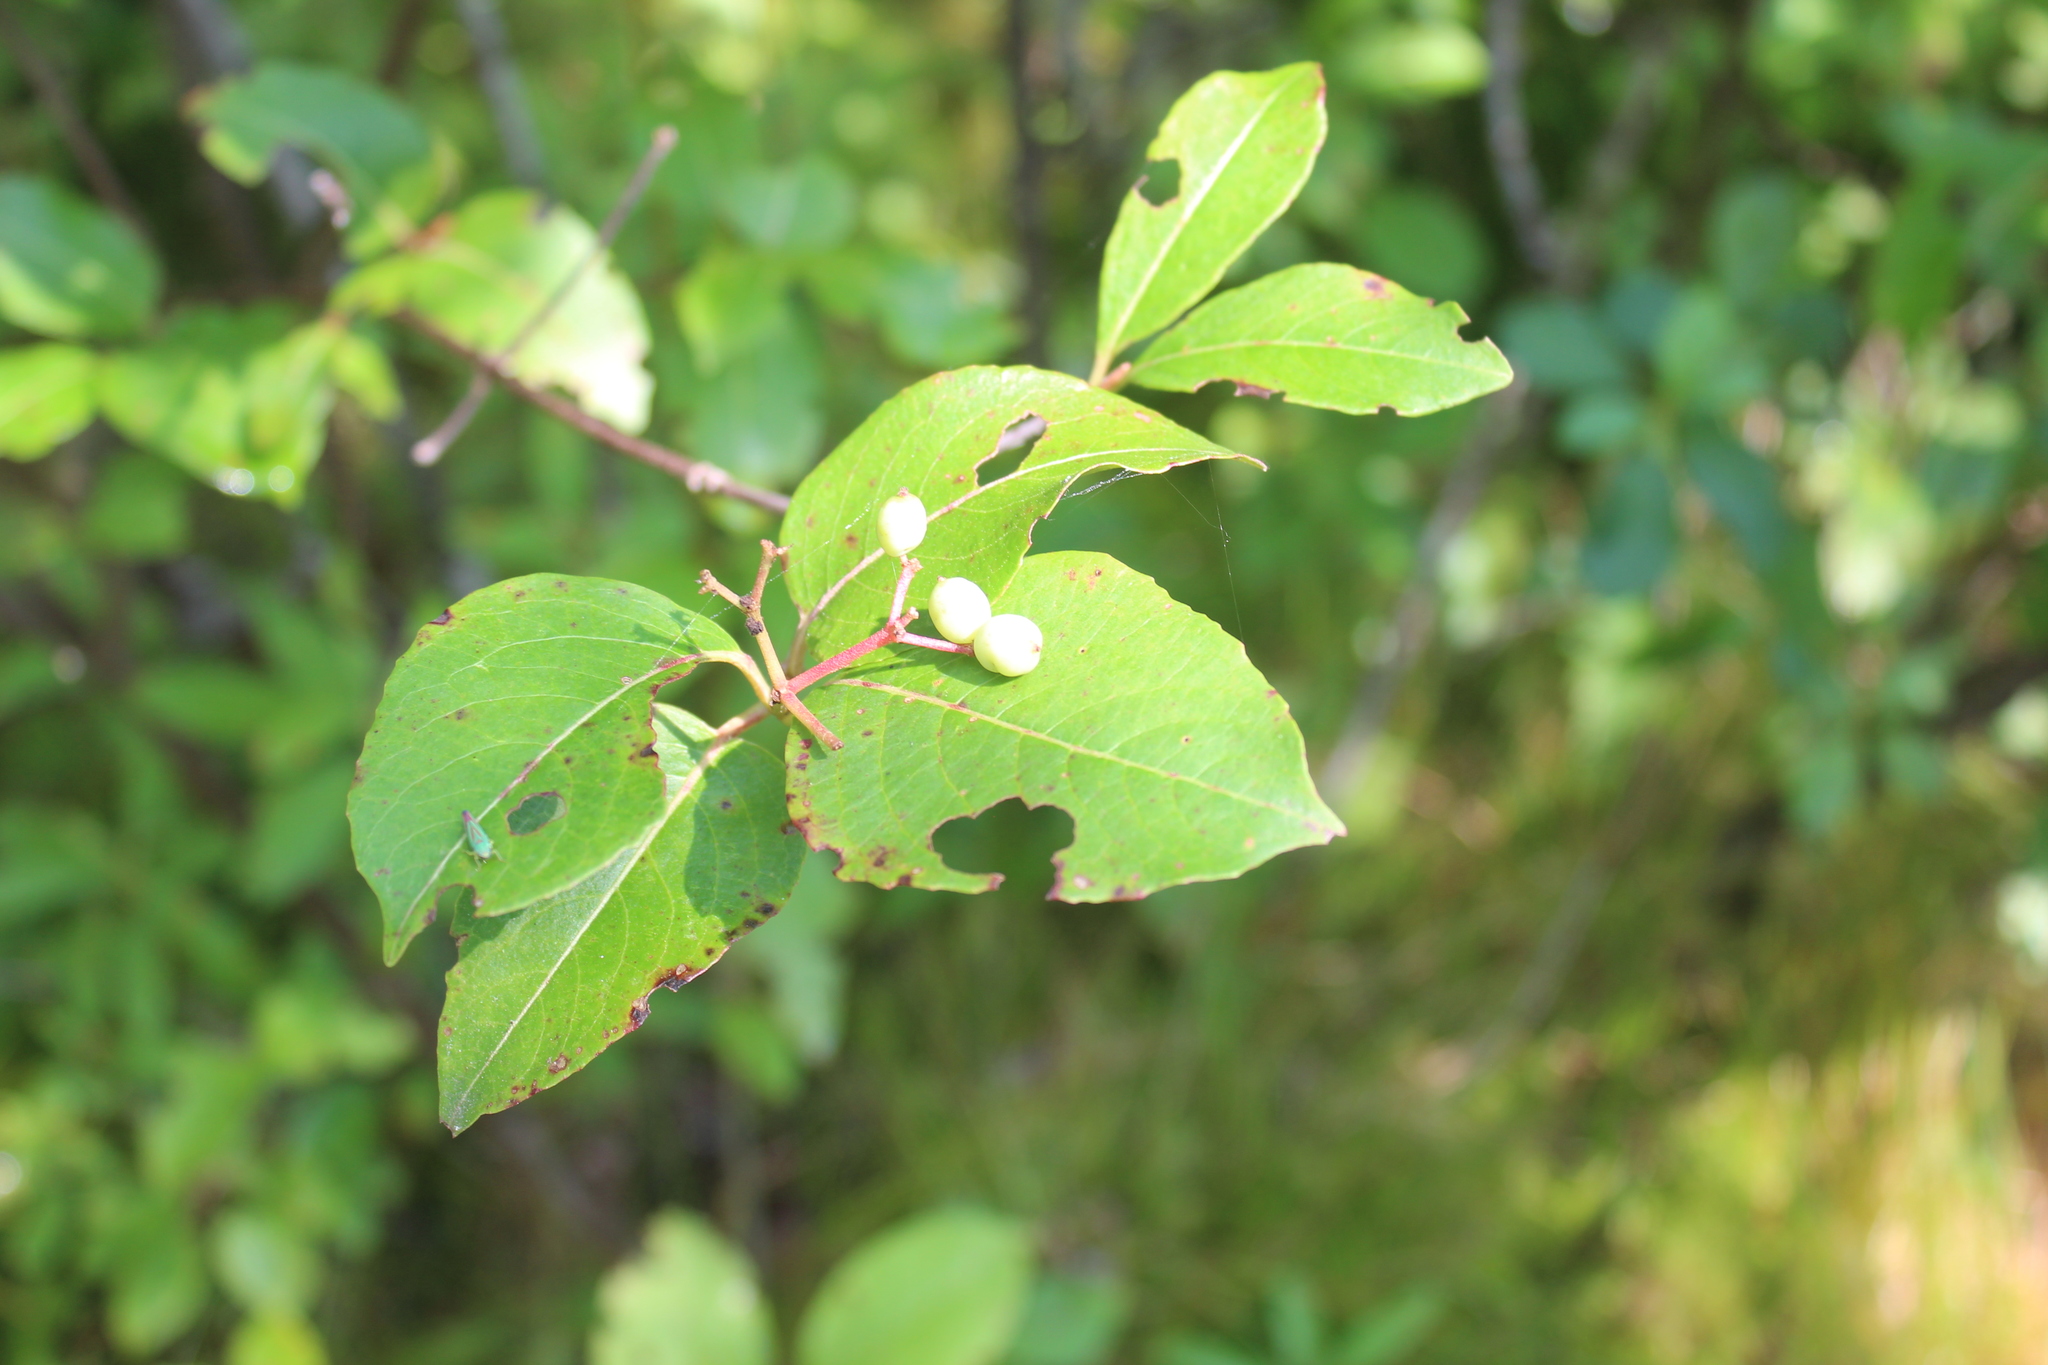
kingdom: Plantae
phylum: Tracheophyta
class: Magnoliopsida
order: Dipsacales
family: Viburnaceae
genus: Viburnum
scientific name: Viburnum cassinoides
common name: Swamp haw
